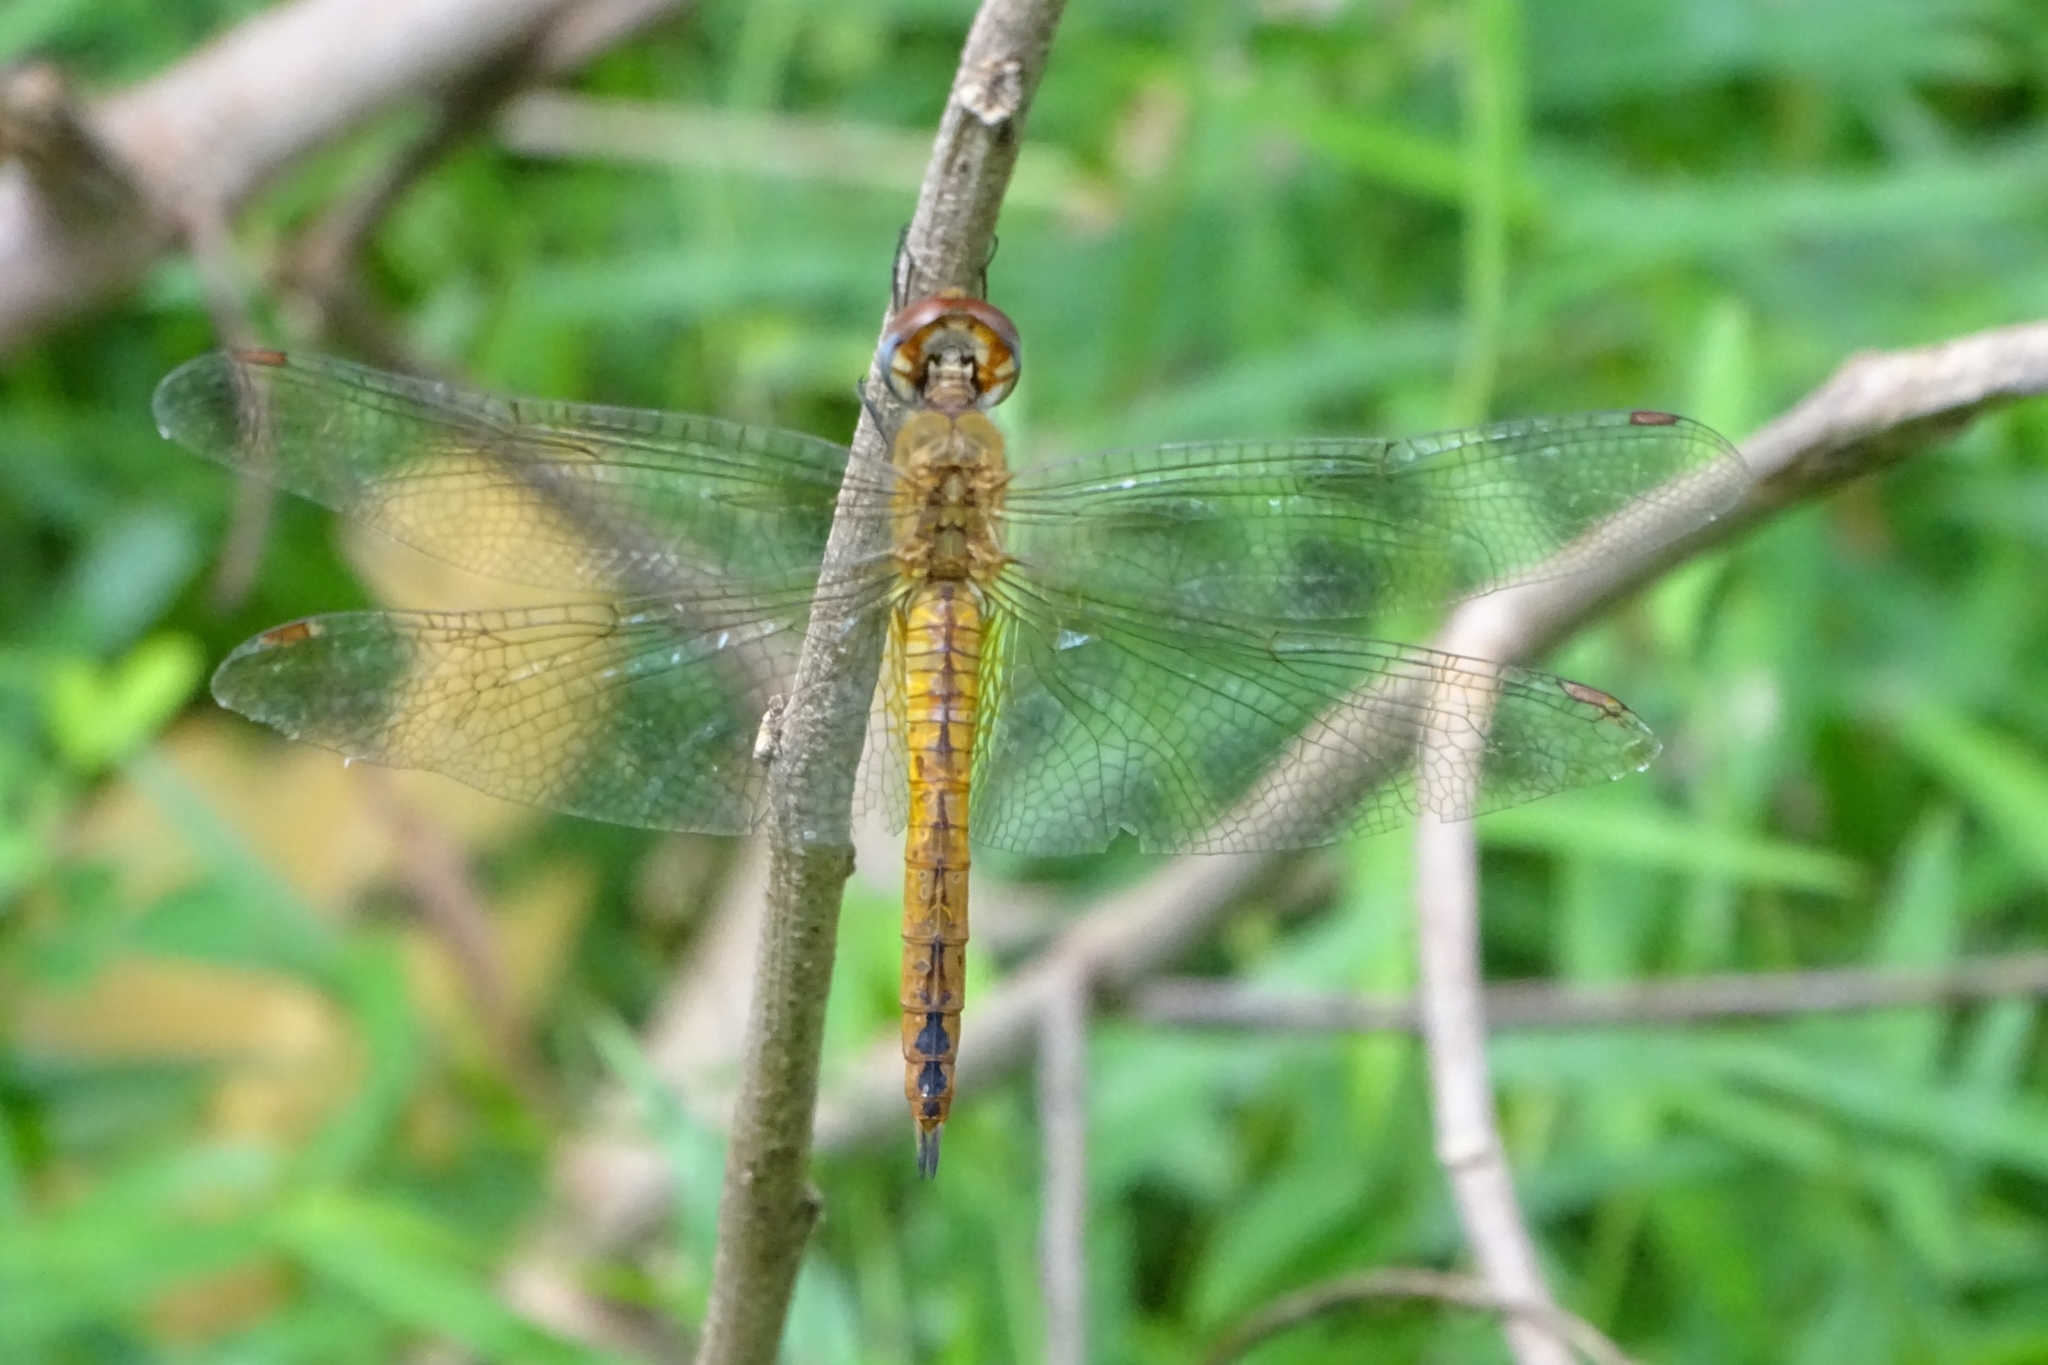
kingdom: Animalia
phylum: Arthropoda
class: Insecta
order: Odonata
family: Libellulidae
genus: Pantala
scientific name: Pantala flavescens
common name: Wandering glider
